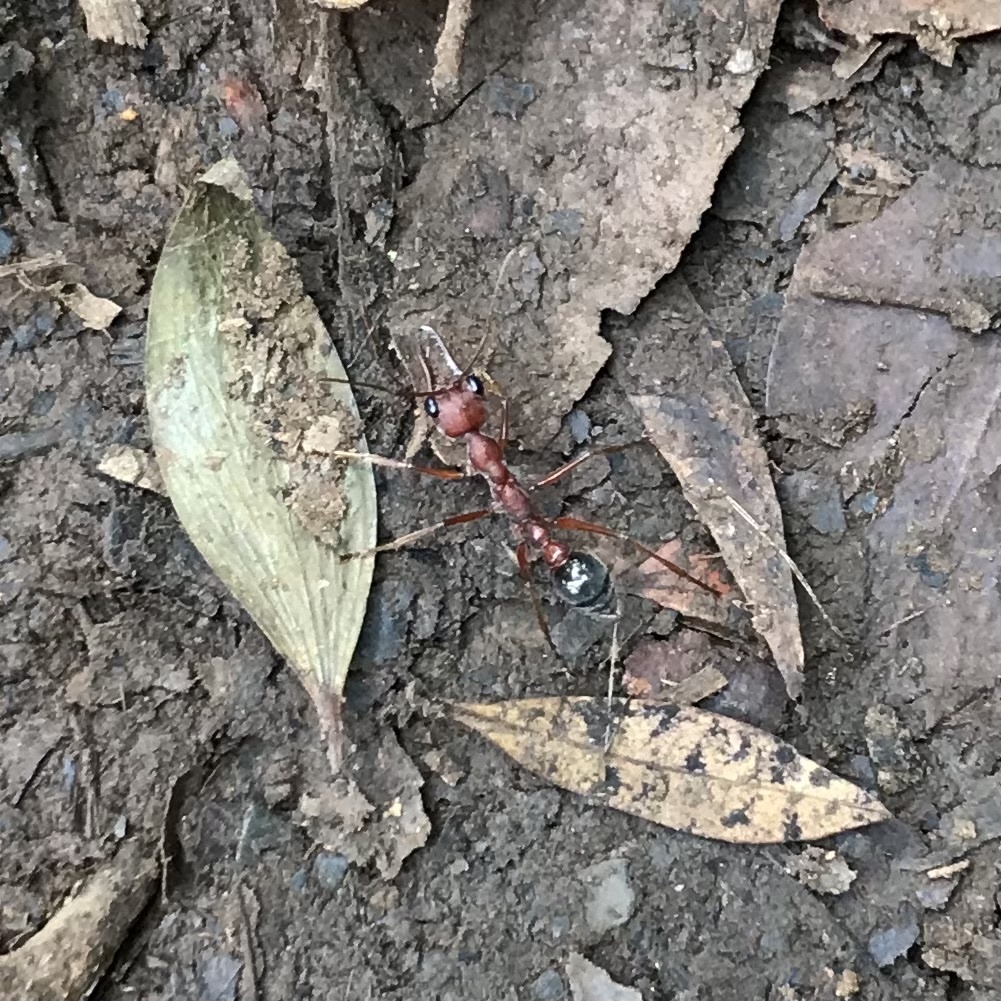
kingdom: Animalia
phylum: Arthropoda
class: Insecta
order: Hymenoptera
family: Formicidae
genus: Myrmecia
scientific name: Myrmecia brevinoda
